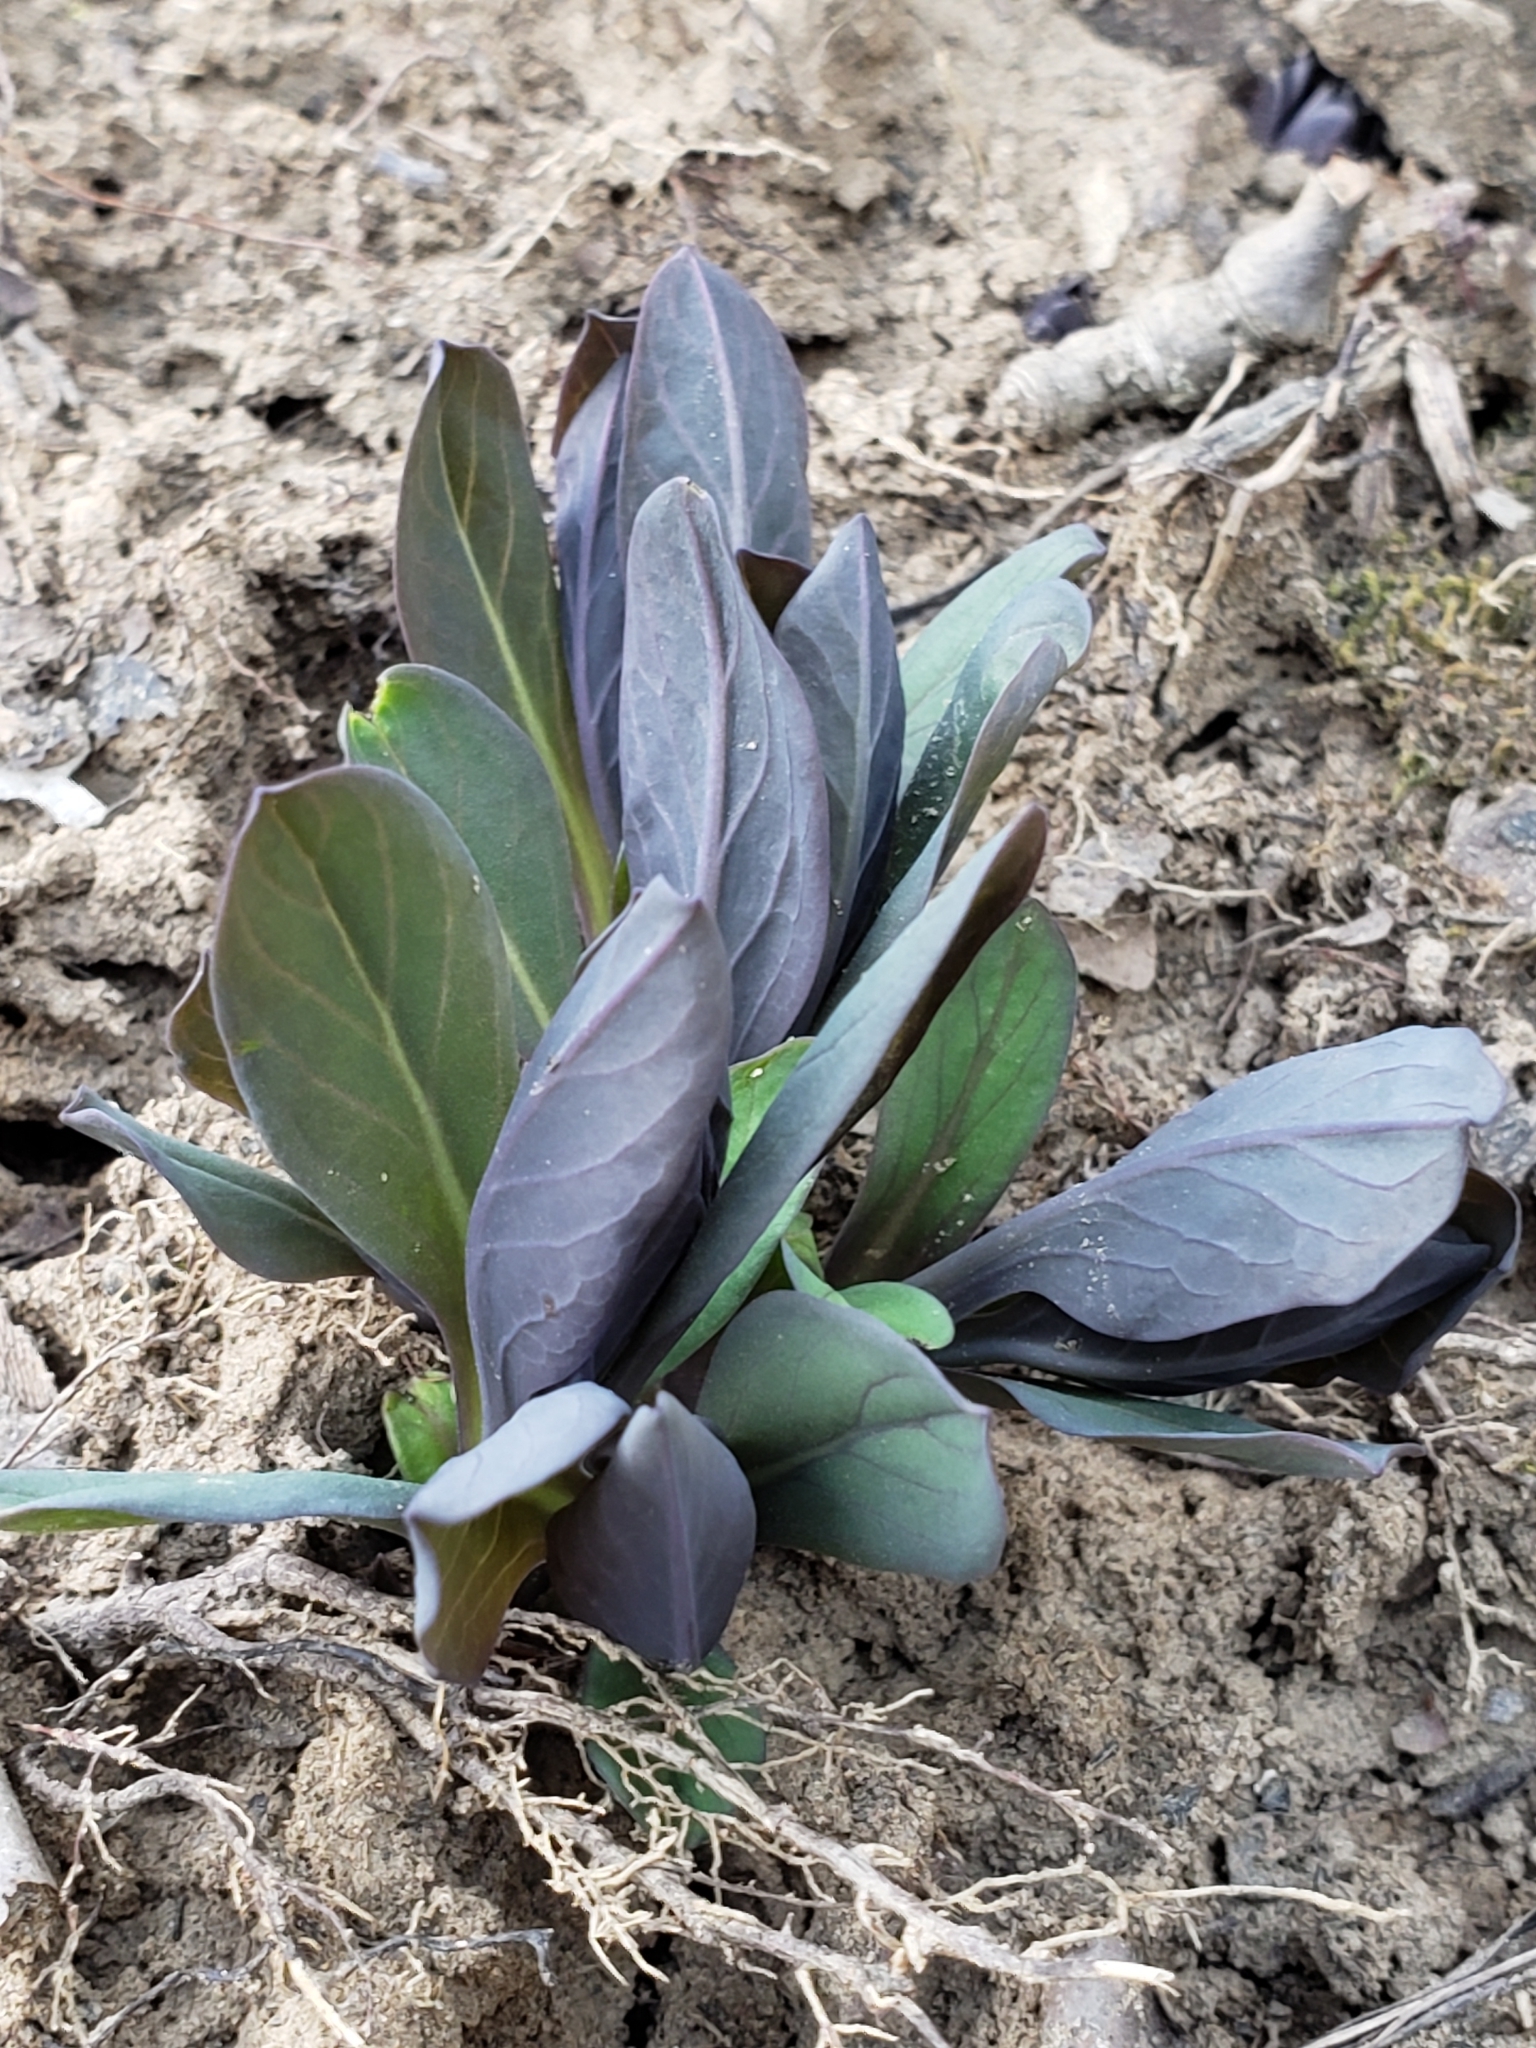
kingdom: Plantae
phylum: Tracheophyta
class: Magnoliopsida
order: Boraginales
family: Boraginaceae
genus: Mertensia
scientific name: Mertensia virginica
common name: Virginia bluebells
